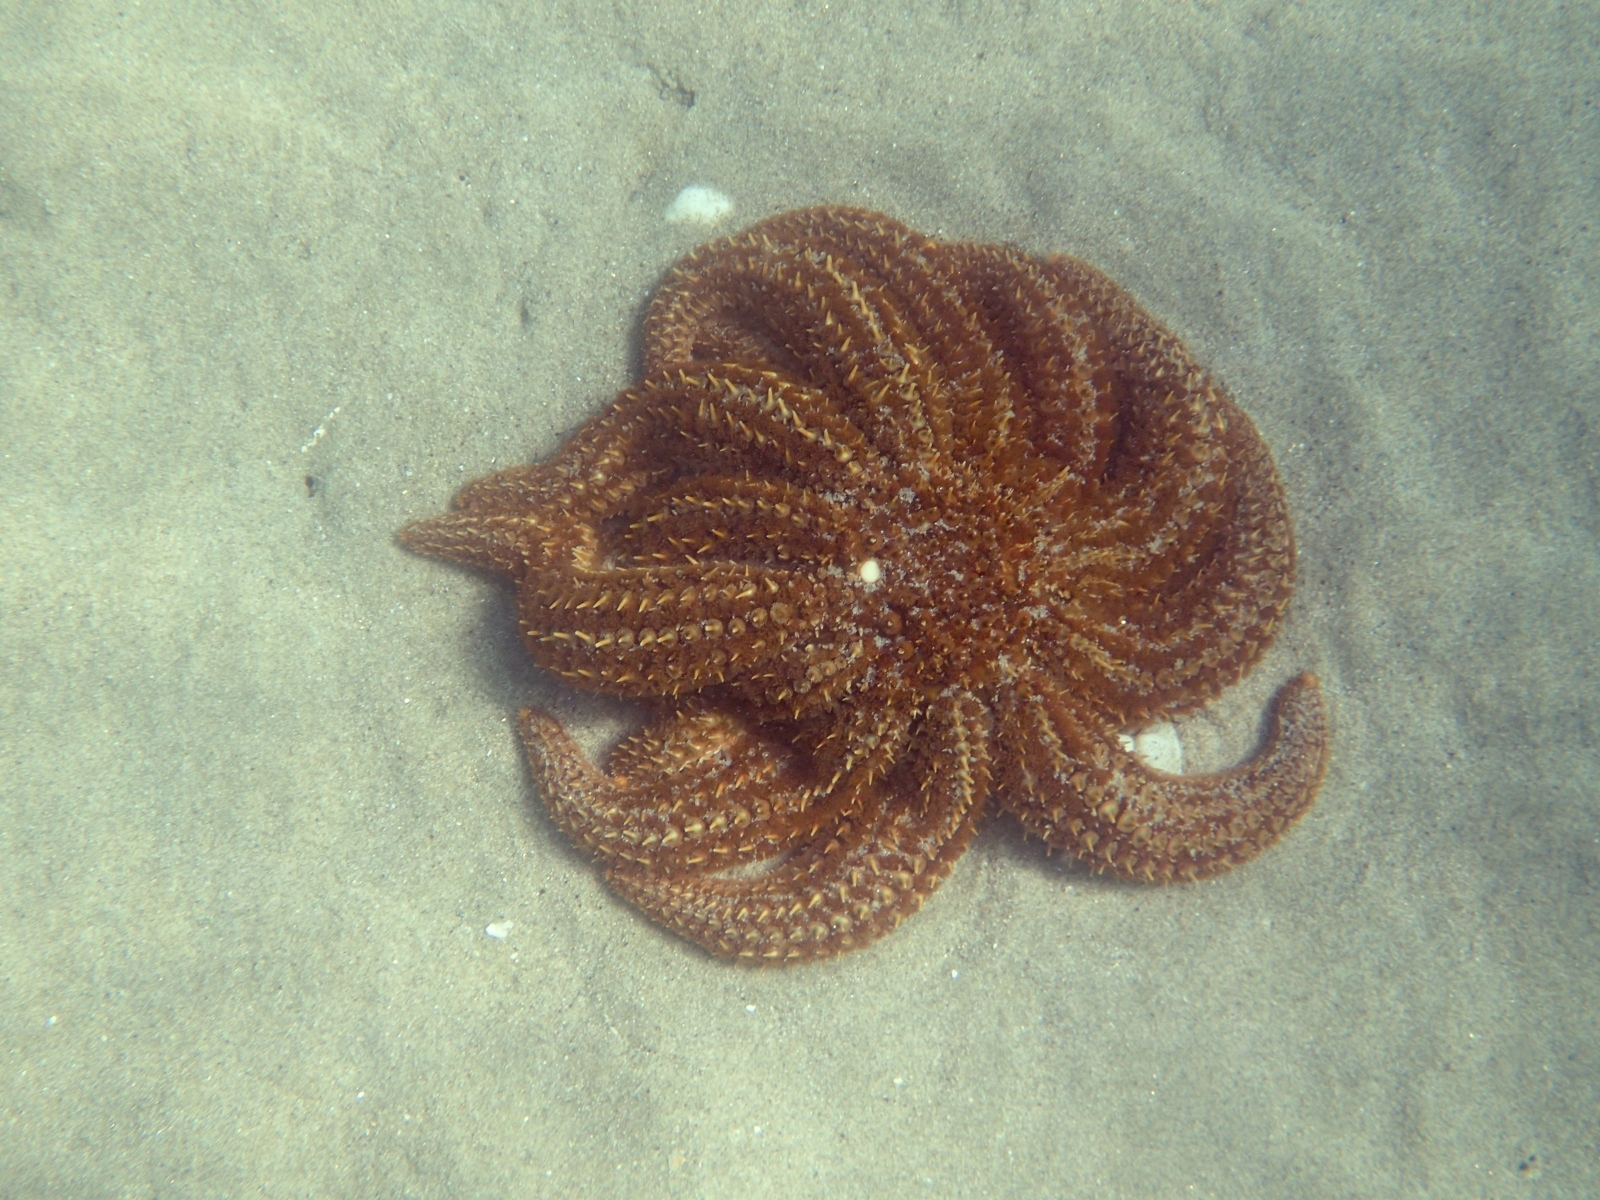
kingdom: Animalia
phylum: Echinodermata
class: Asteroidea
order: Forcipulatida
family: Asteriidae
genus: Coscinasterias
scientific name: Coscinasterias muricata
